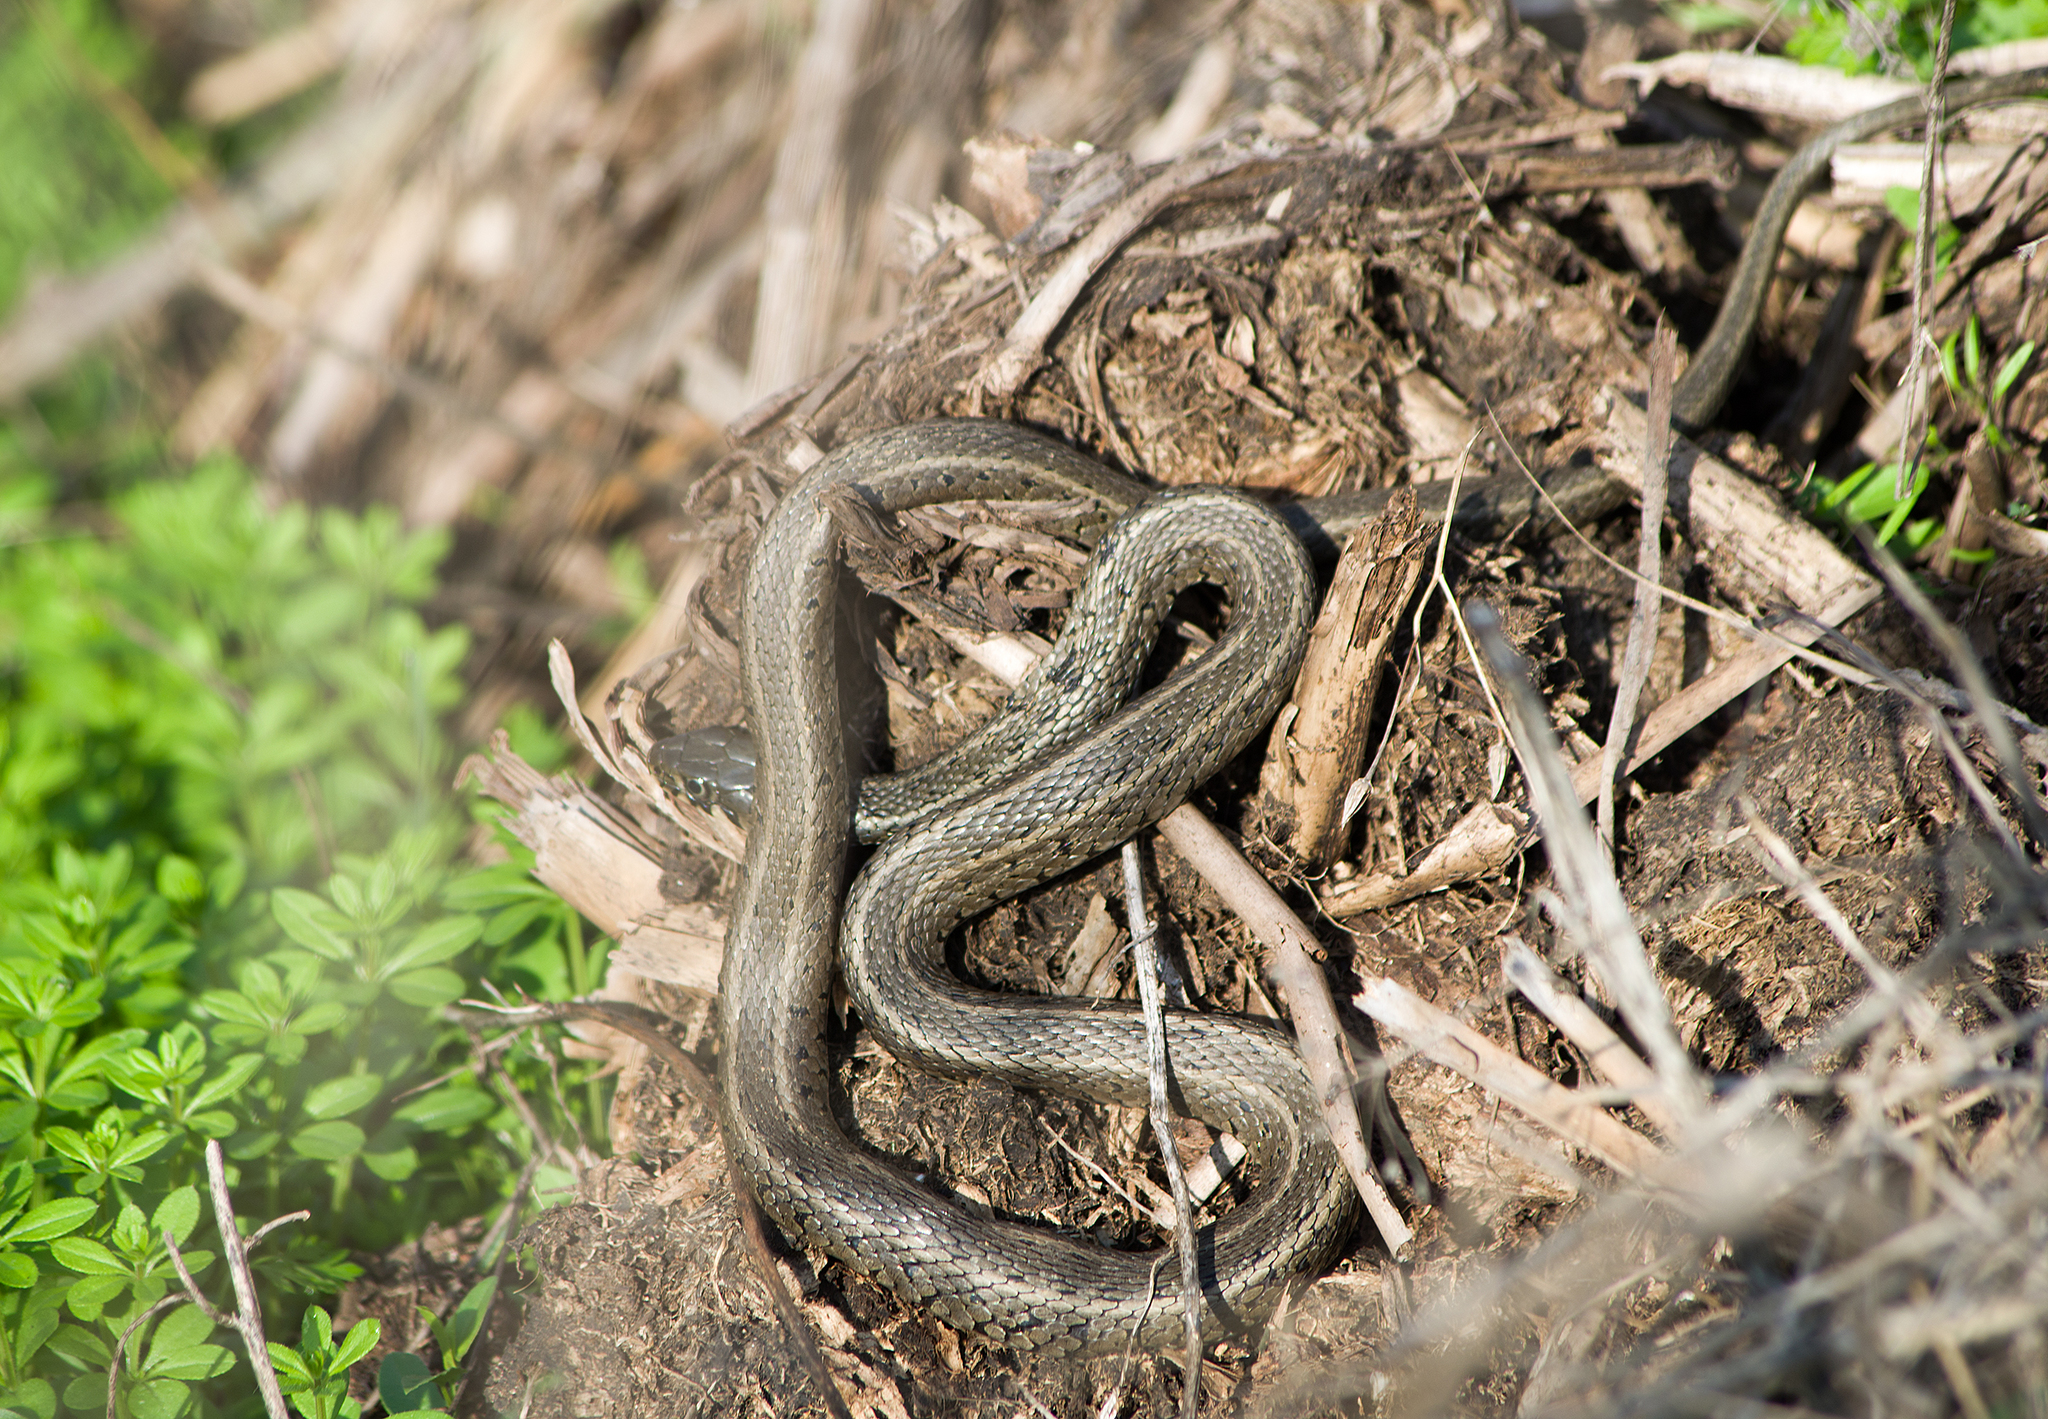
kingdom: Animalia
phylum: Chordata
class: Squamata
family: Colubridae
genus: Natrix
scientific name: Natrix natrix
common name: Grass snake
